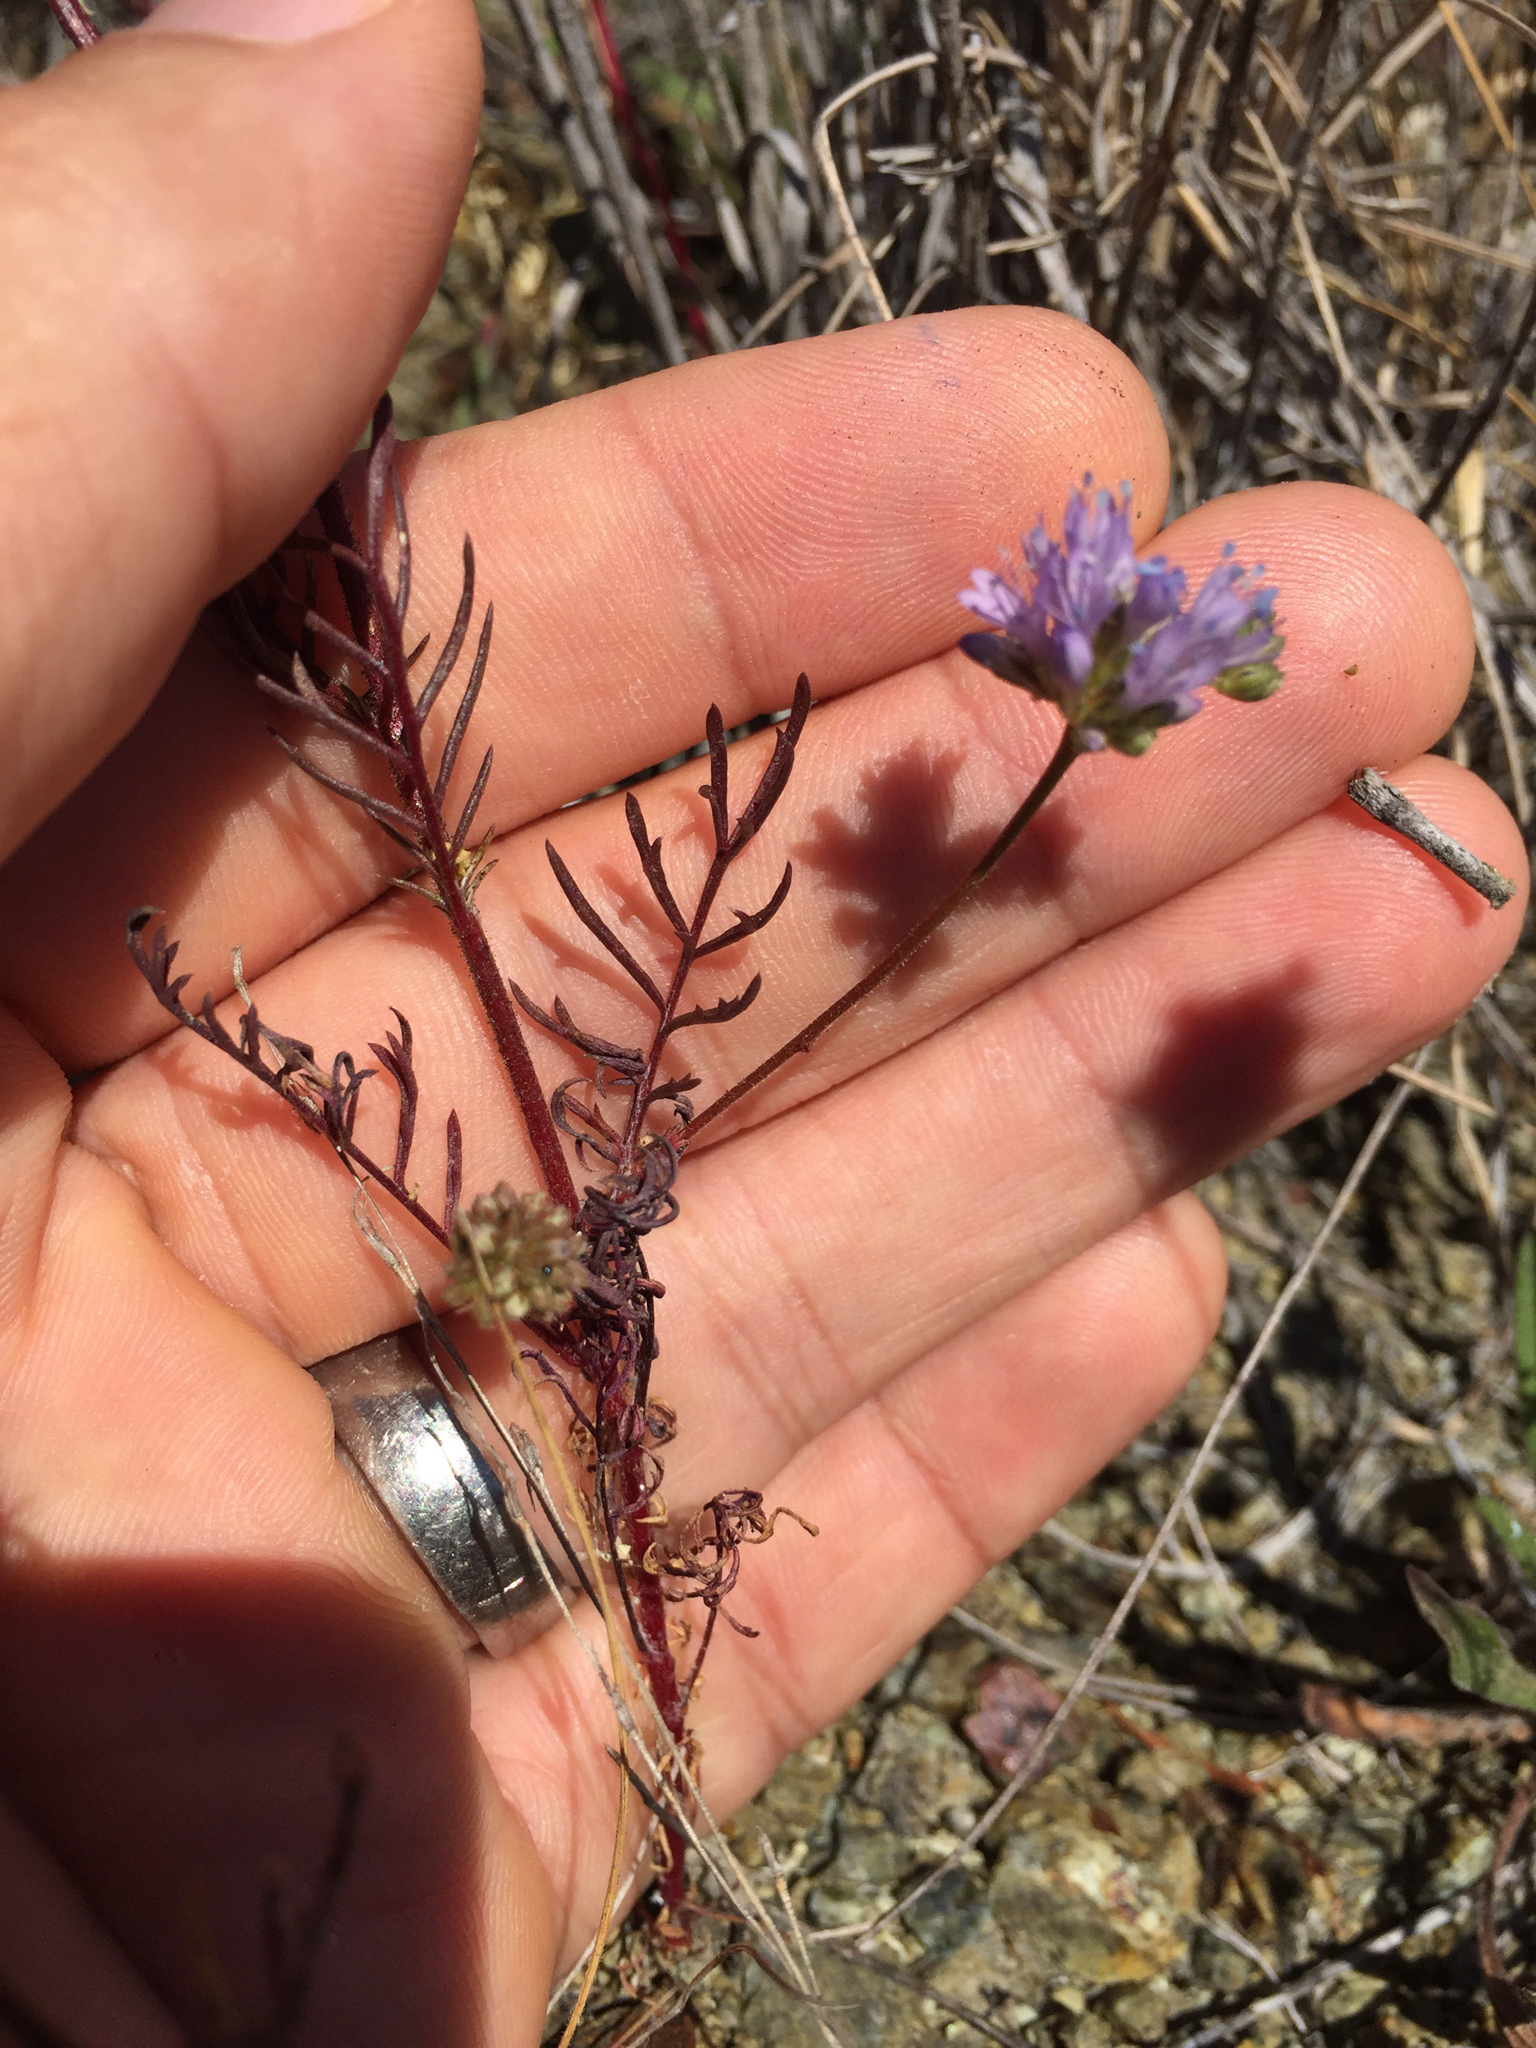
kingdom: Plantae
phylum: Tracheophyta
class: Magnoliopsida
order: Ericales
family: Polemoniaceae
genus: Gilia
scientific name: Gilia capitata
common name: Bluehead gilia
